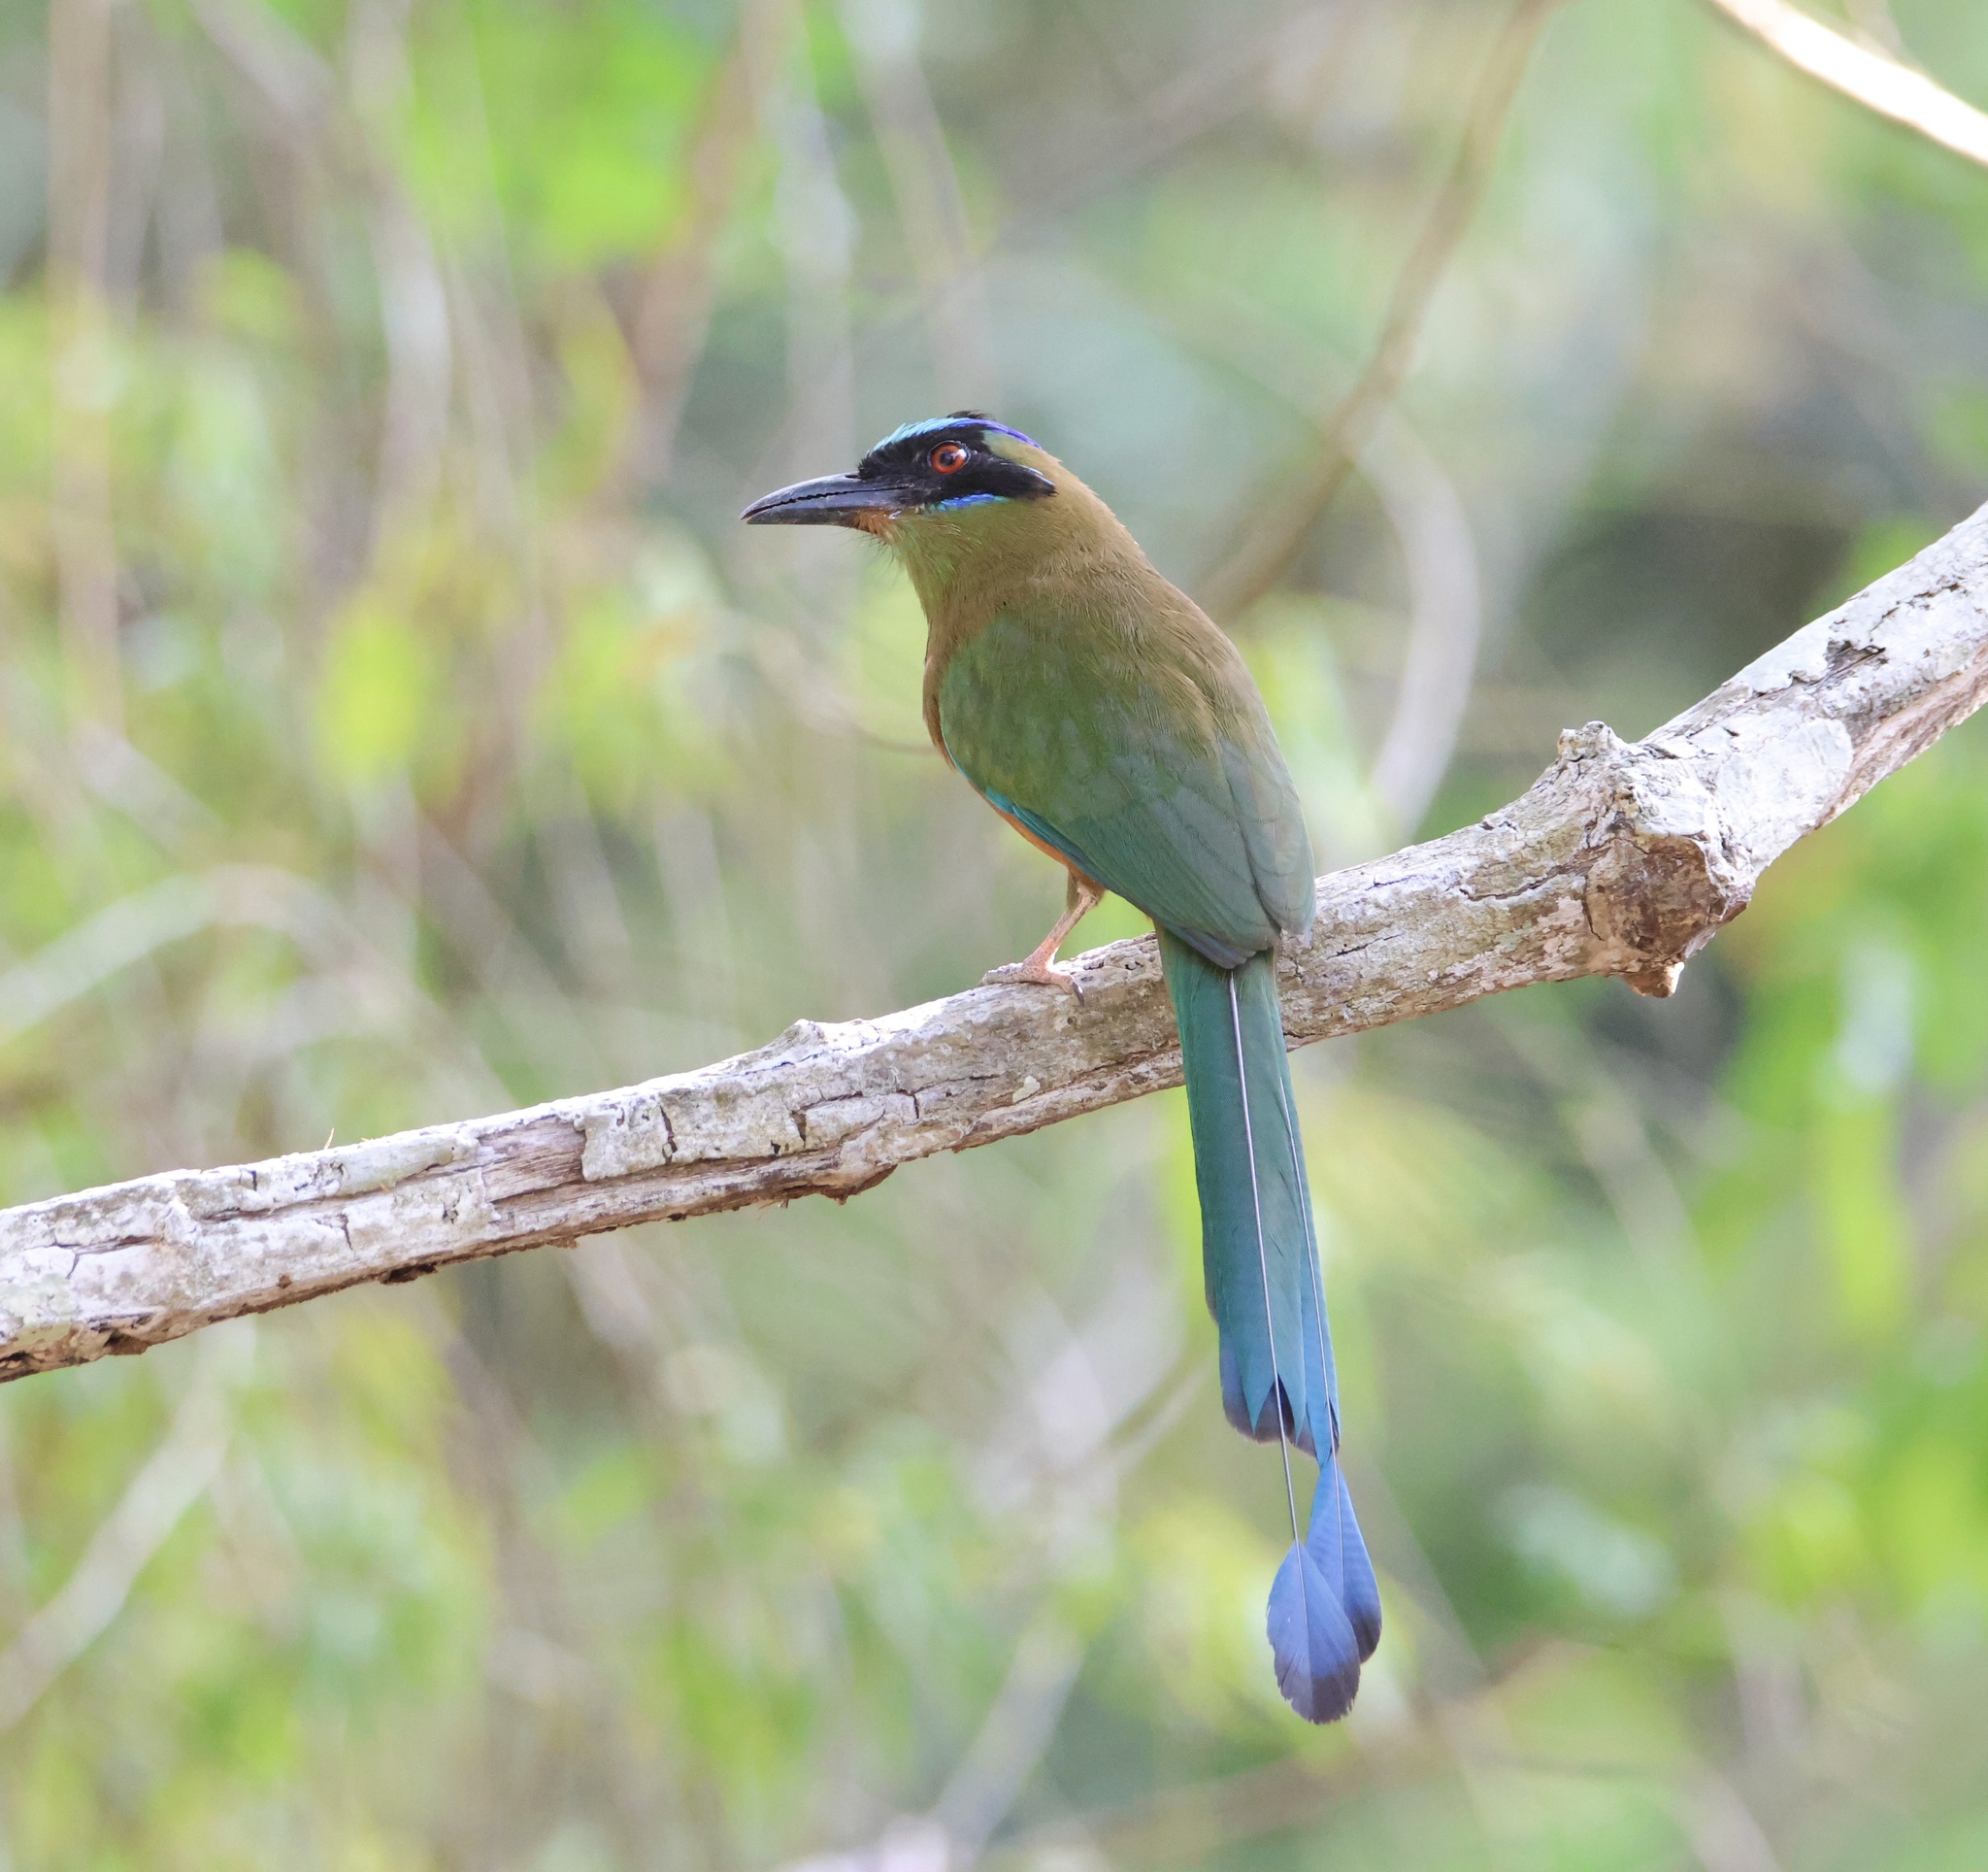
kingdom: Animalia
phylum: Chordata
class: Aves
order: Coraciiformes
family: Momotidae
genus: Momotus
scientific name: Momotus subrufescens
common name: Whooping motmot
